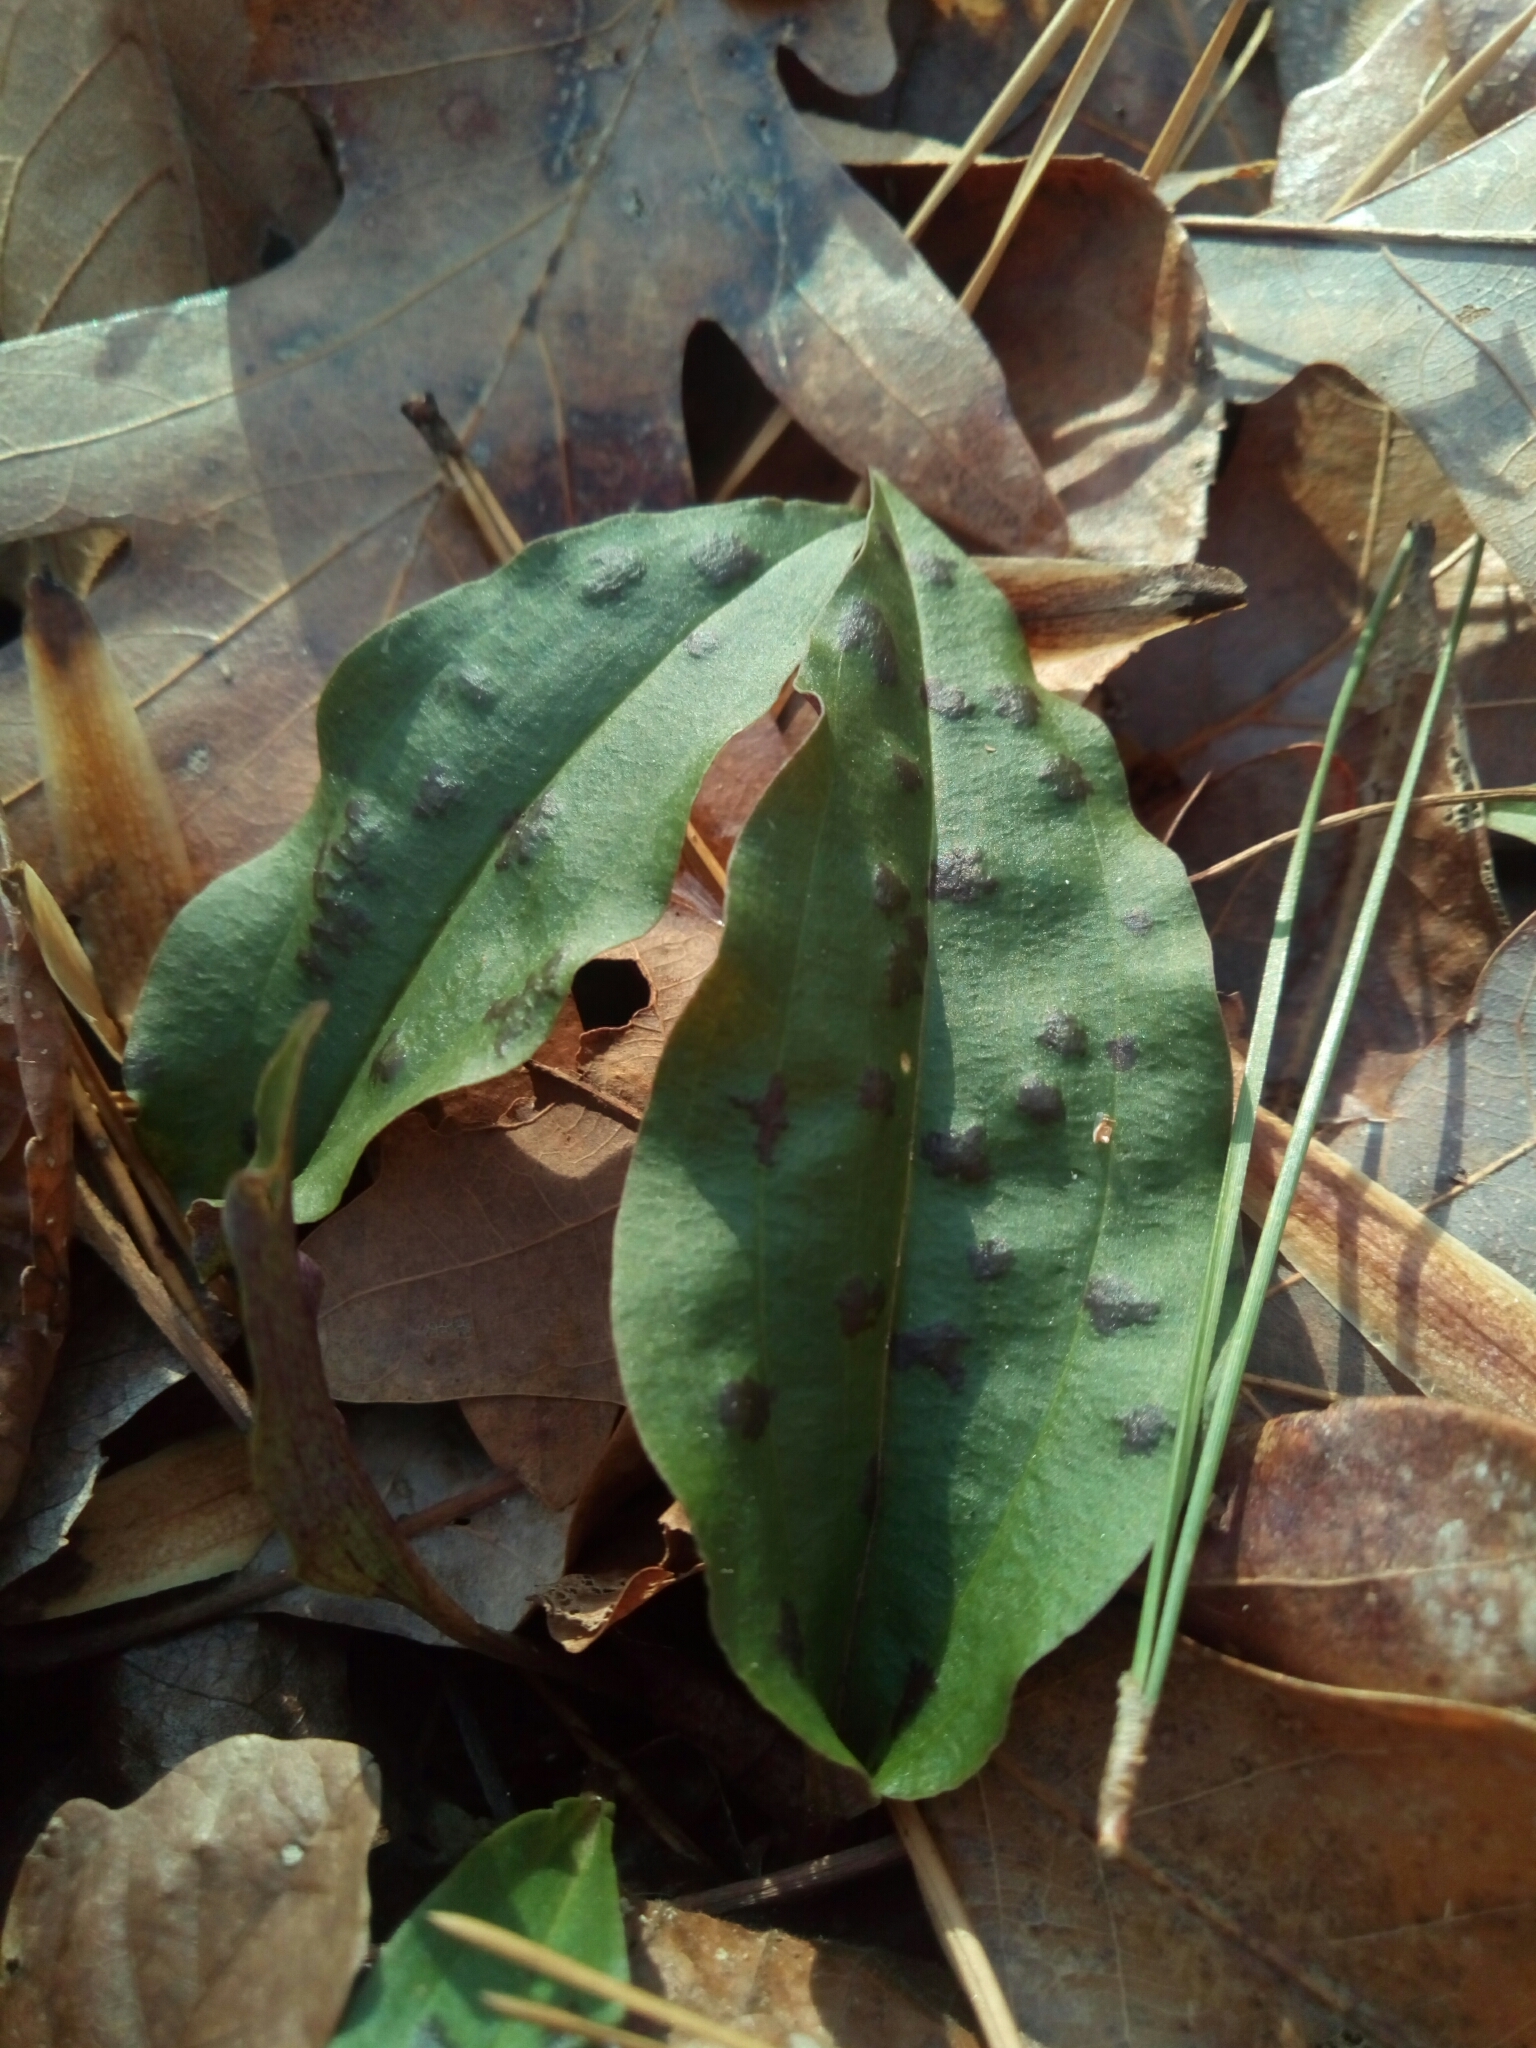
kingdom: Plantae
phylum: Tracheophyta
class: Liliopsida
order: Asparagales
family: Orchidaceae
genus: Tipularia
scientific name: Tipularia discolor
